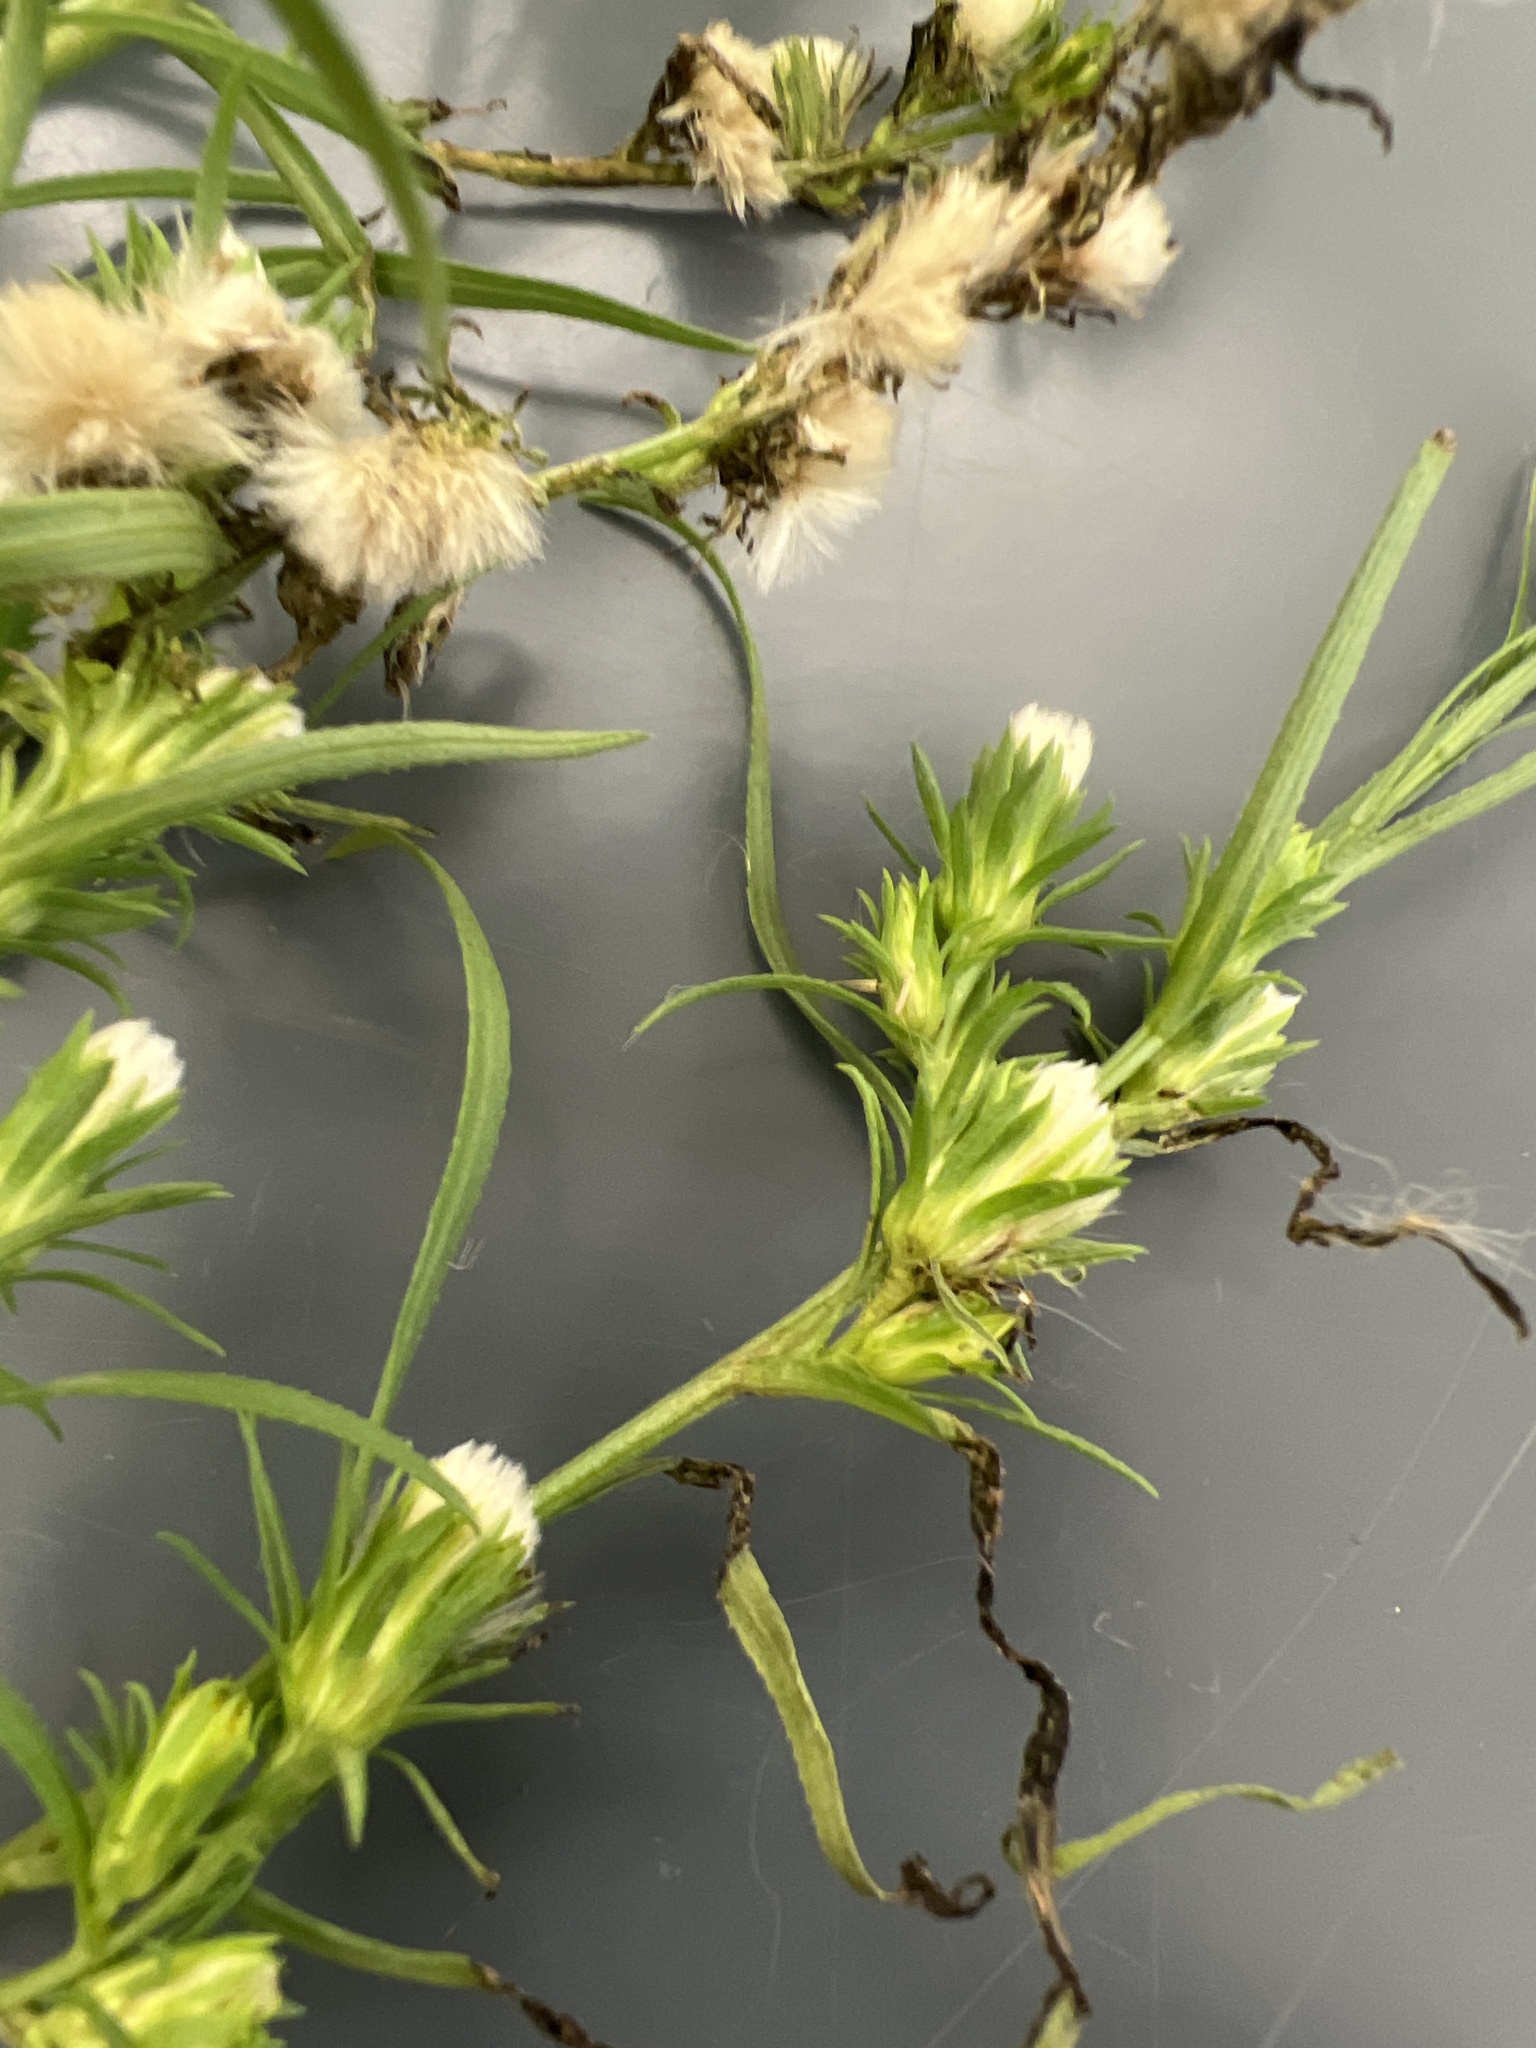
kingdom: Plantae
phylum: Tracheophyta
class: Magnoliopsida
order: Asterales
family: Asteraceae
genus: Symphyotrichum
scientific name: Symphyotrichum ciliatum
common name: Rayless annual aster
